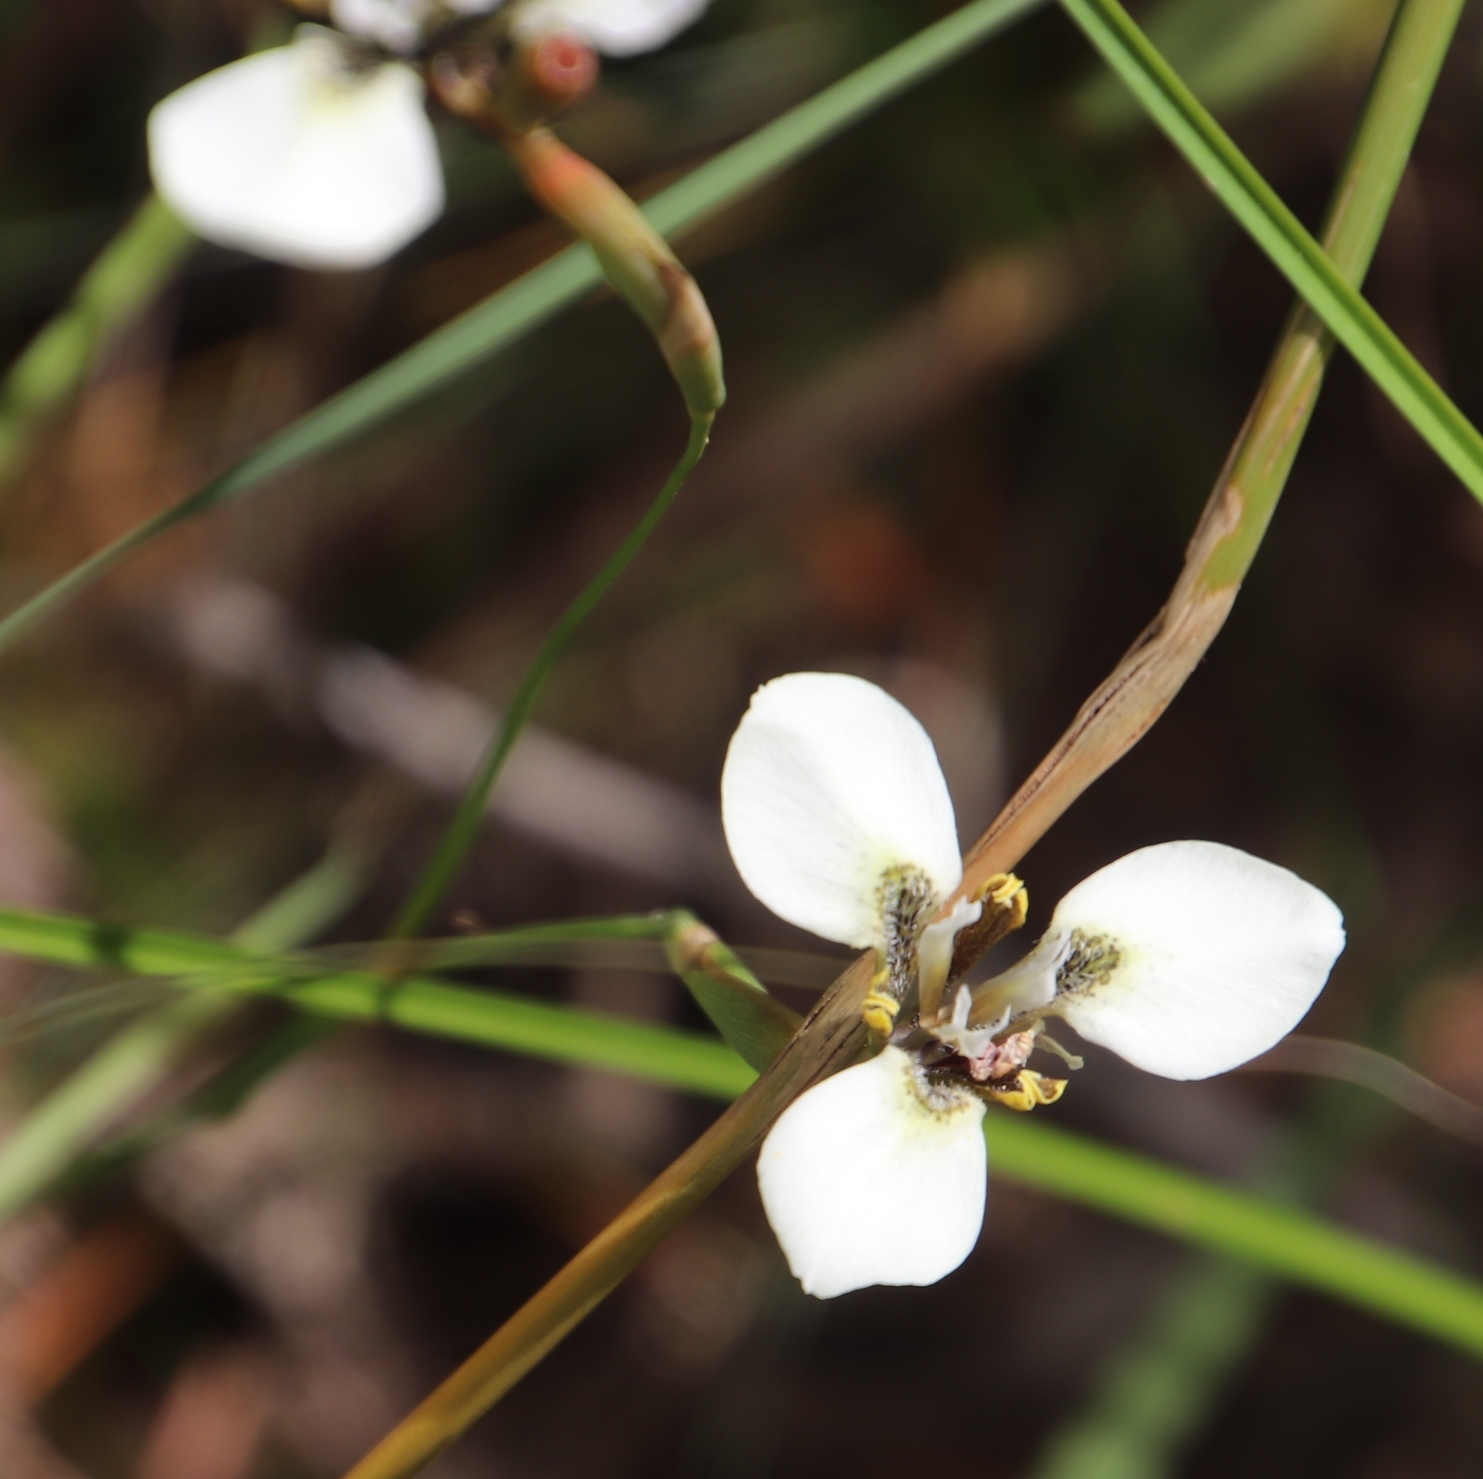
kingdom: Plantae
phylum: Tracheophyta
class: Liliopsida
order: Asparagales
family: Iridaceae
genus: Moraea
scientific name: Moraea tricuspidata
